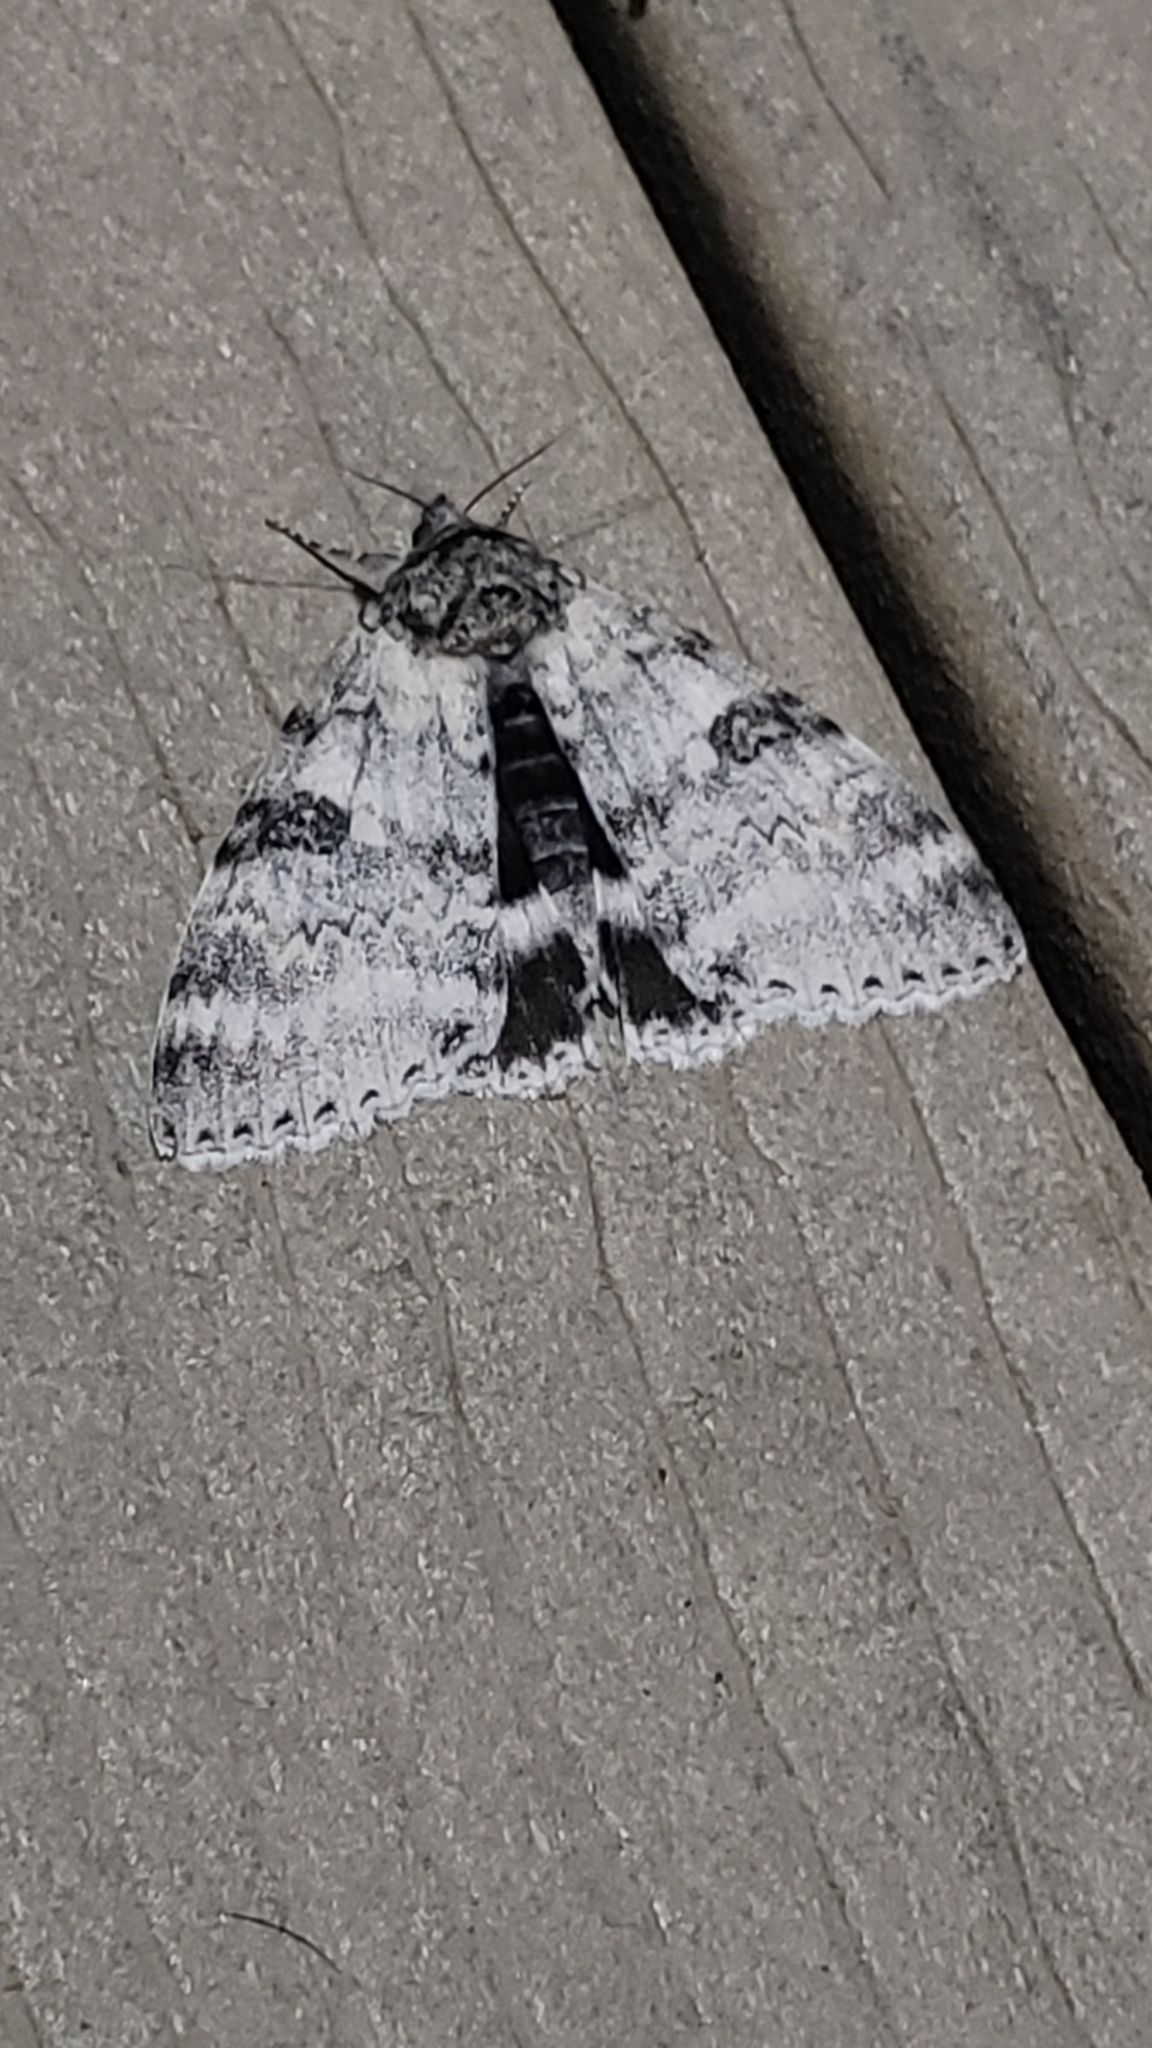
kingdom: Animalia
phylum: Arthropoda
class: Insecta
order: Lepidoptera
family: Erebidae
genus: Catocala
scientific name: Catocala relicta
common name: White underwing
